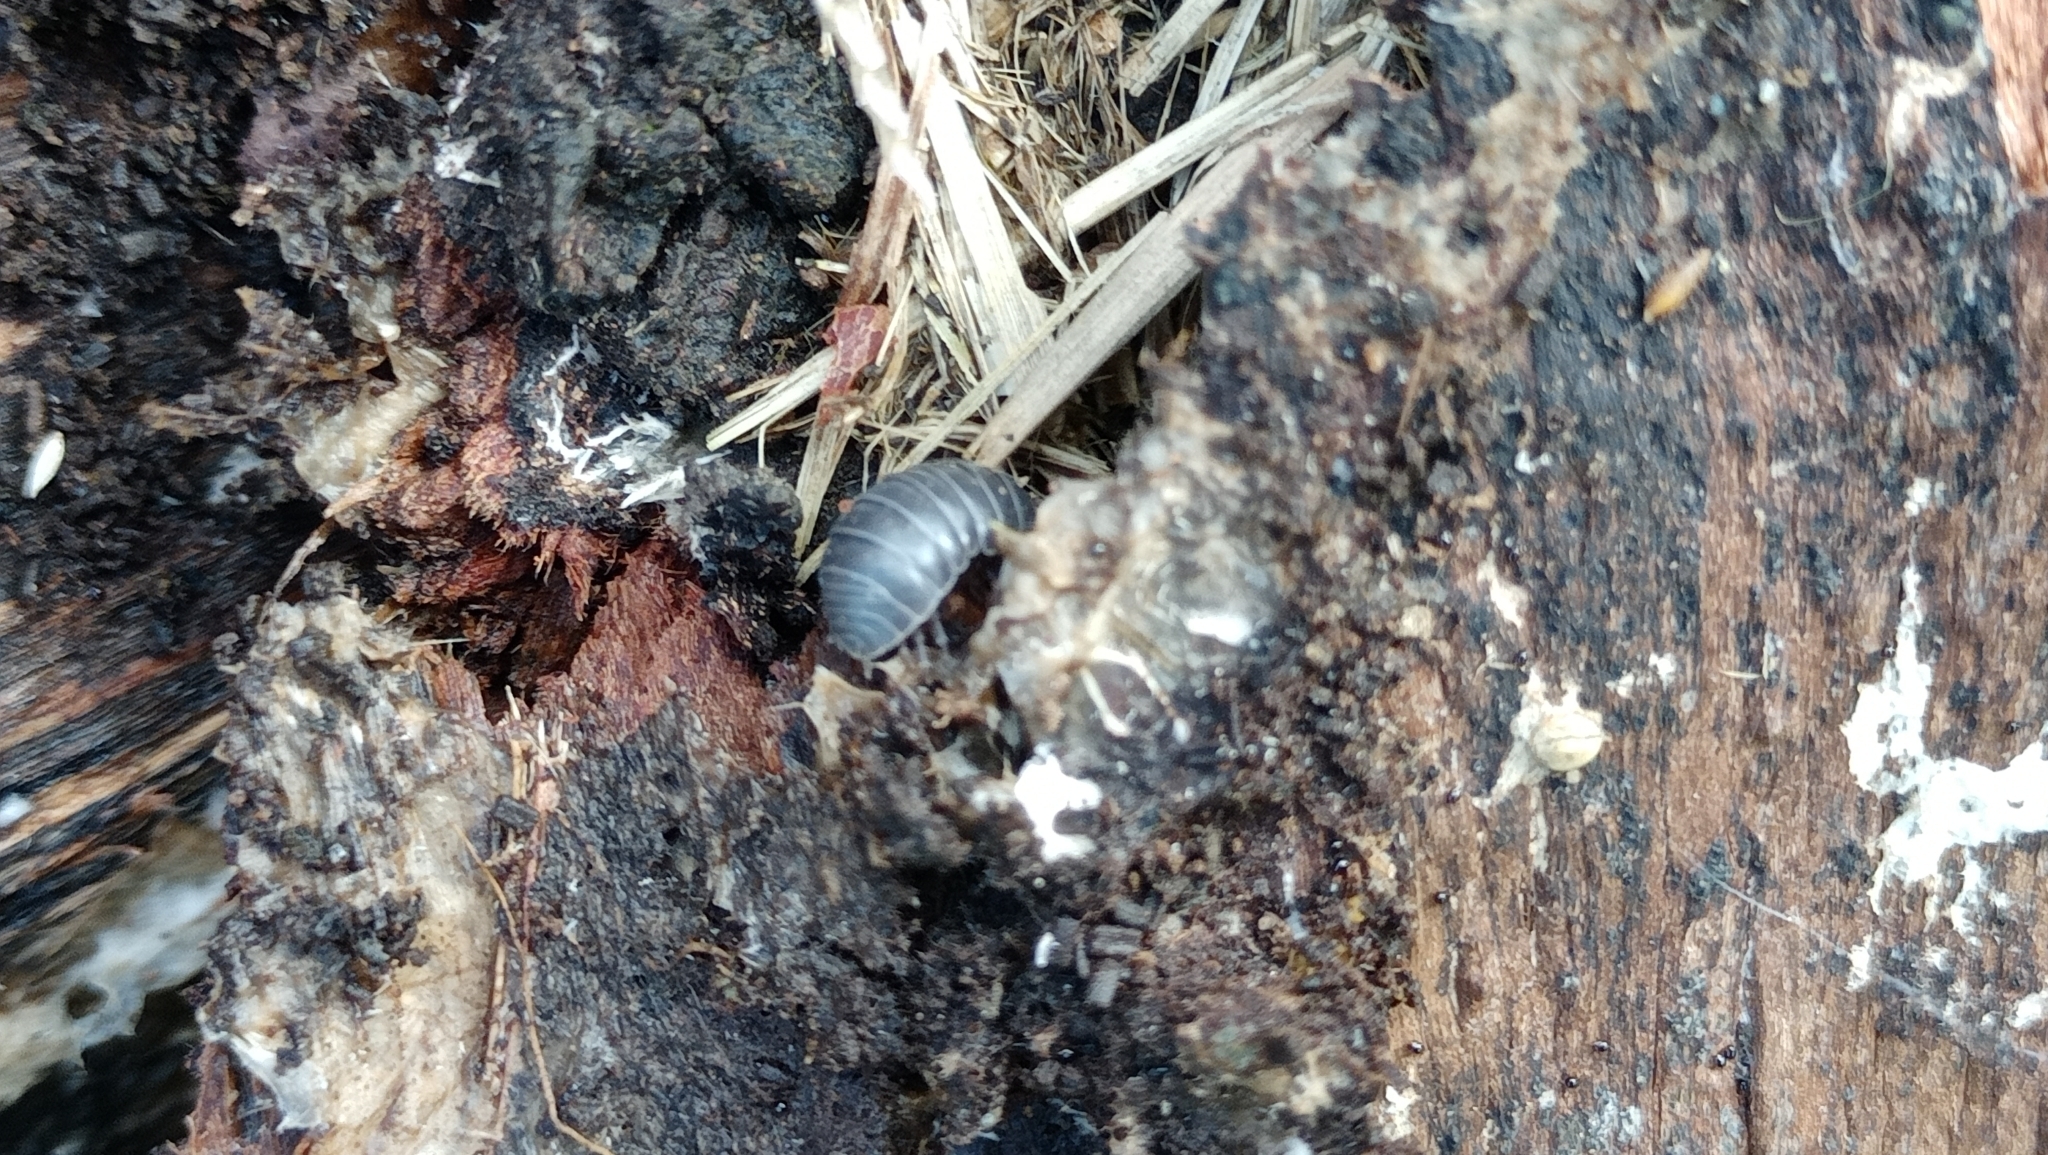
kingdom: Animalia
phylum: Arthropoda
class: Malacostraca
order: Isopoda
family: Armadillidiidae
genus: Armadillidium
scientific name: Armadillidium vulgare
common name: Common pill woodlouse
